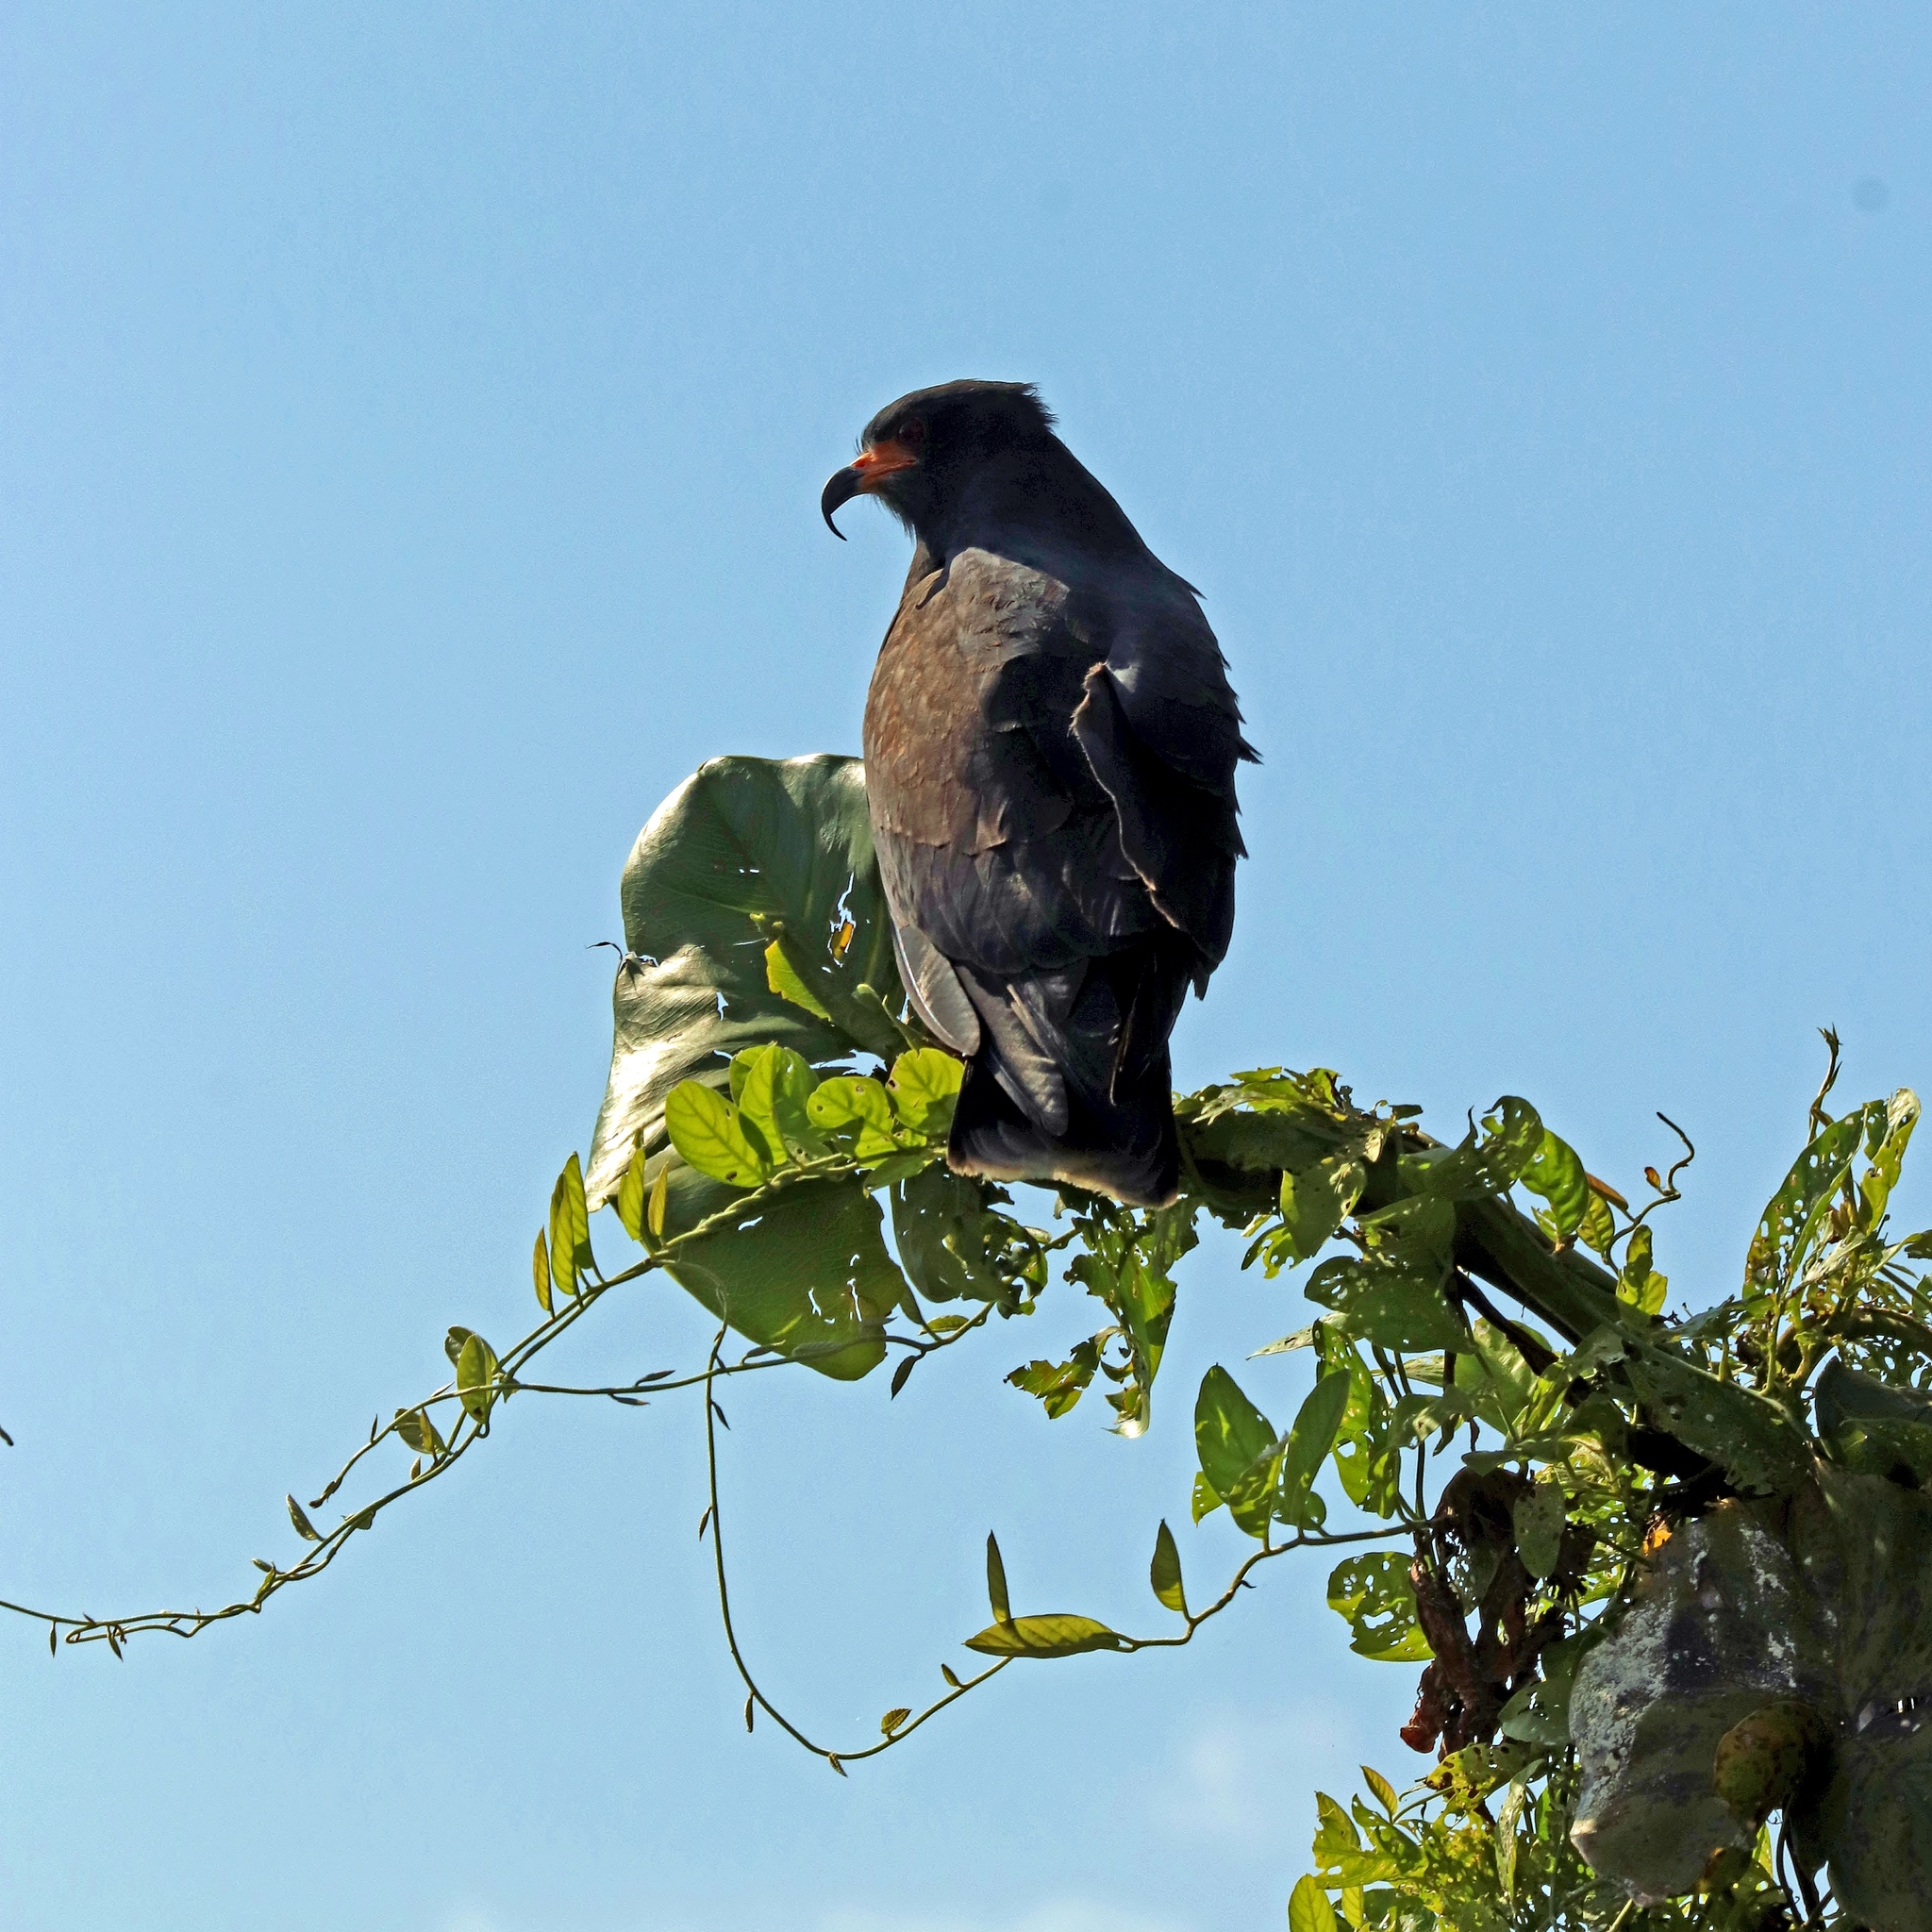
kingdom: Animalia
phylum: Chordata
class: Aves
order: Accipitriformes
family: Accipitridae
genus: Rostrhamus
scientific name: Rostrhamus sociabilis
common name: Snail kite
